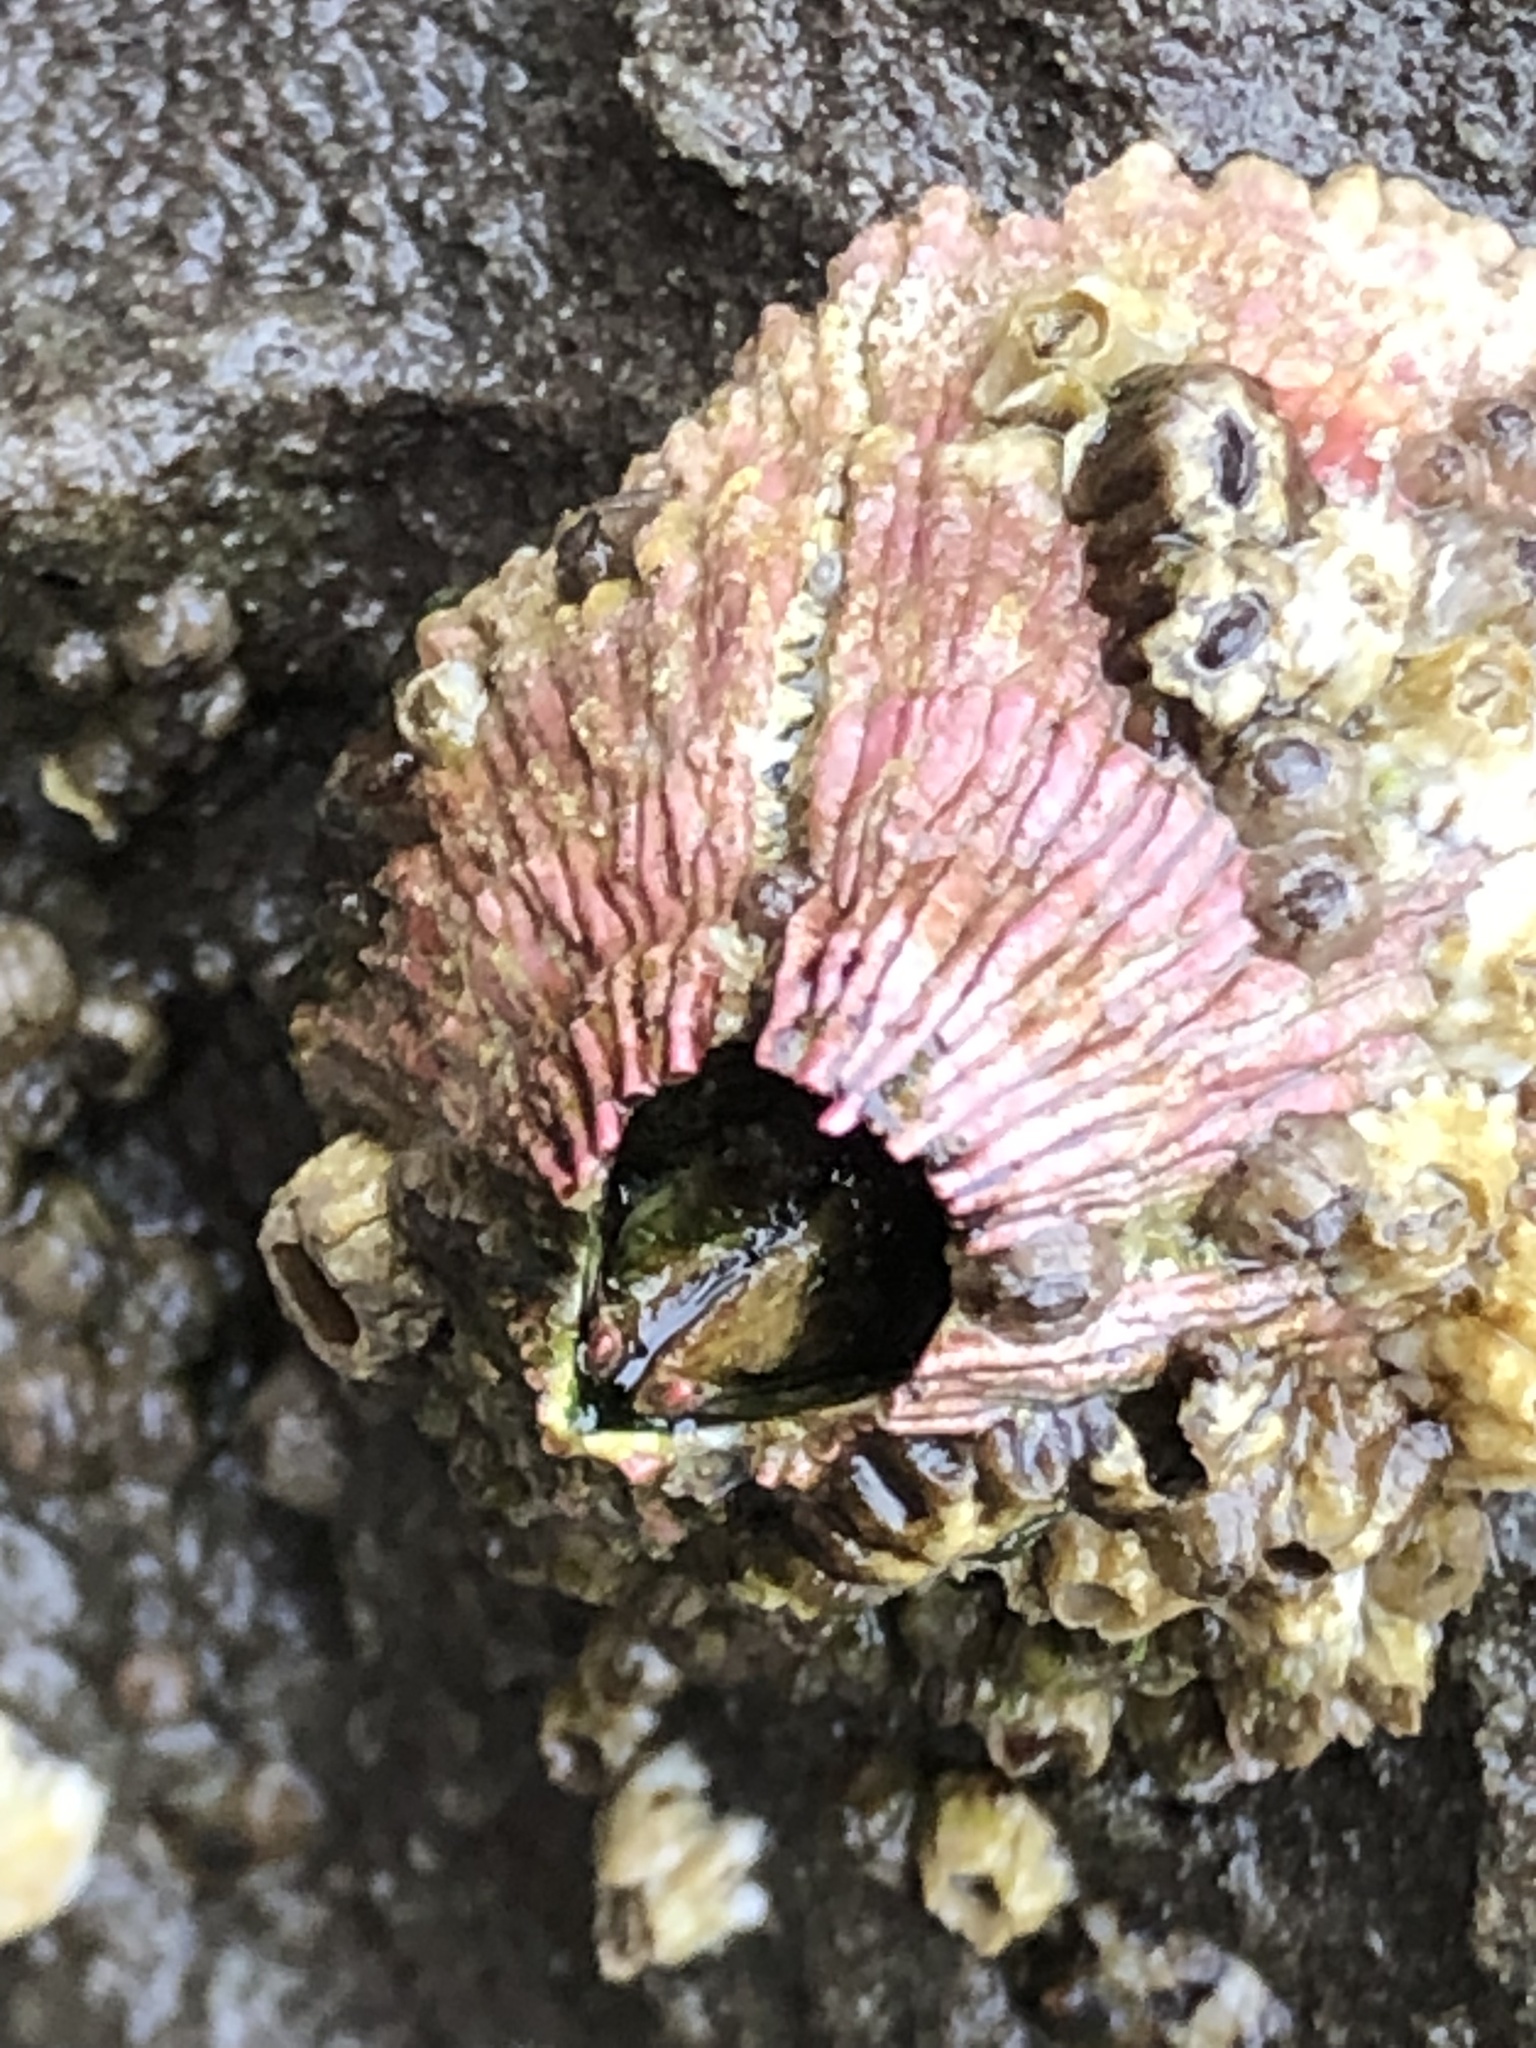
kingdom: Animalia
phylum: Arthropoda
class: Maxillopoda
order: Sessilia
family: Tetraclitidae
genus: Tetraclita
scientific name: Tetraclita rubescens
